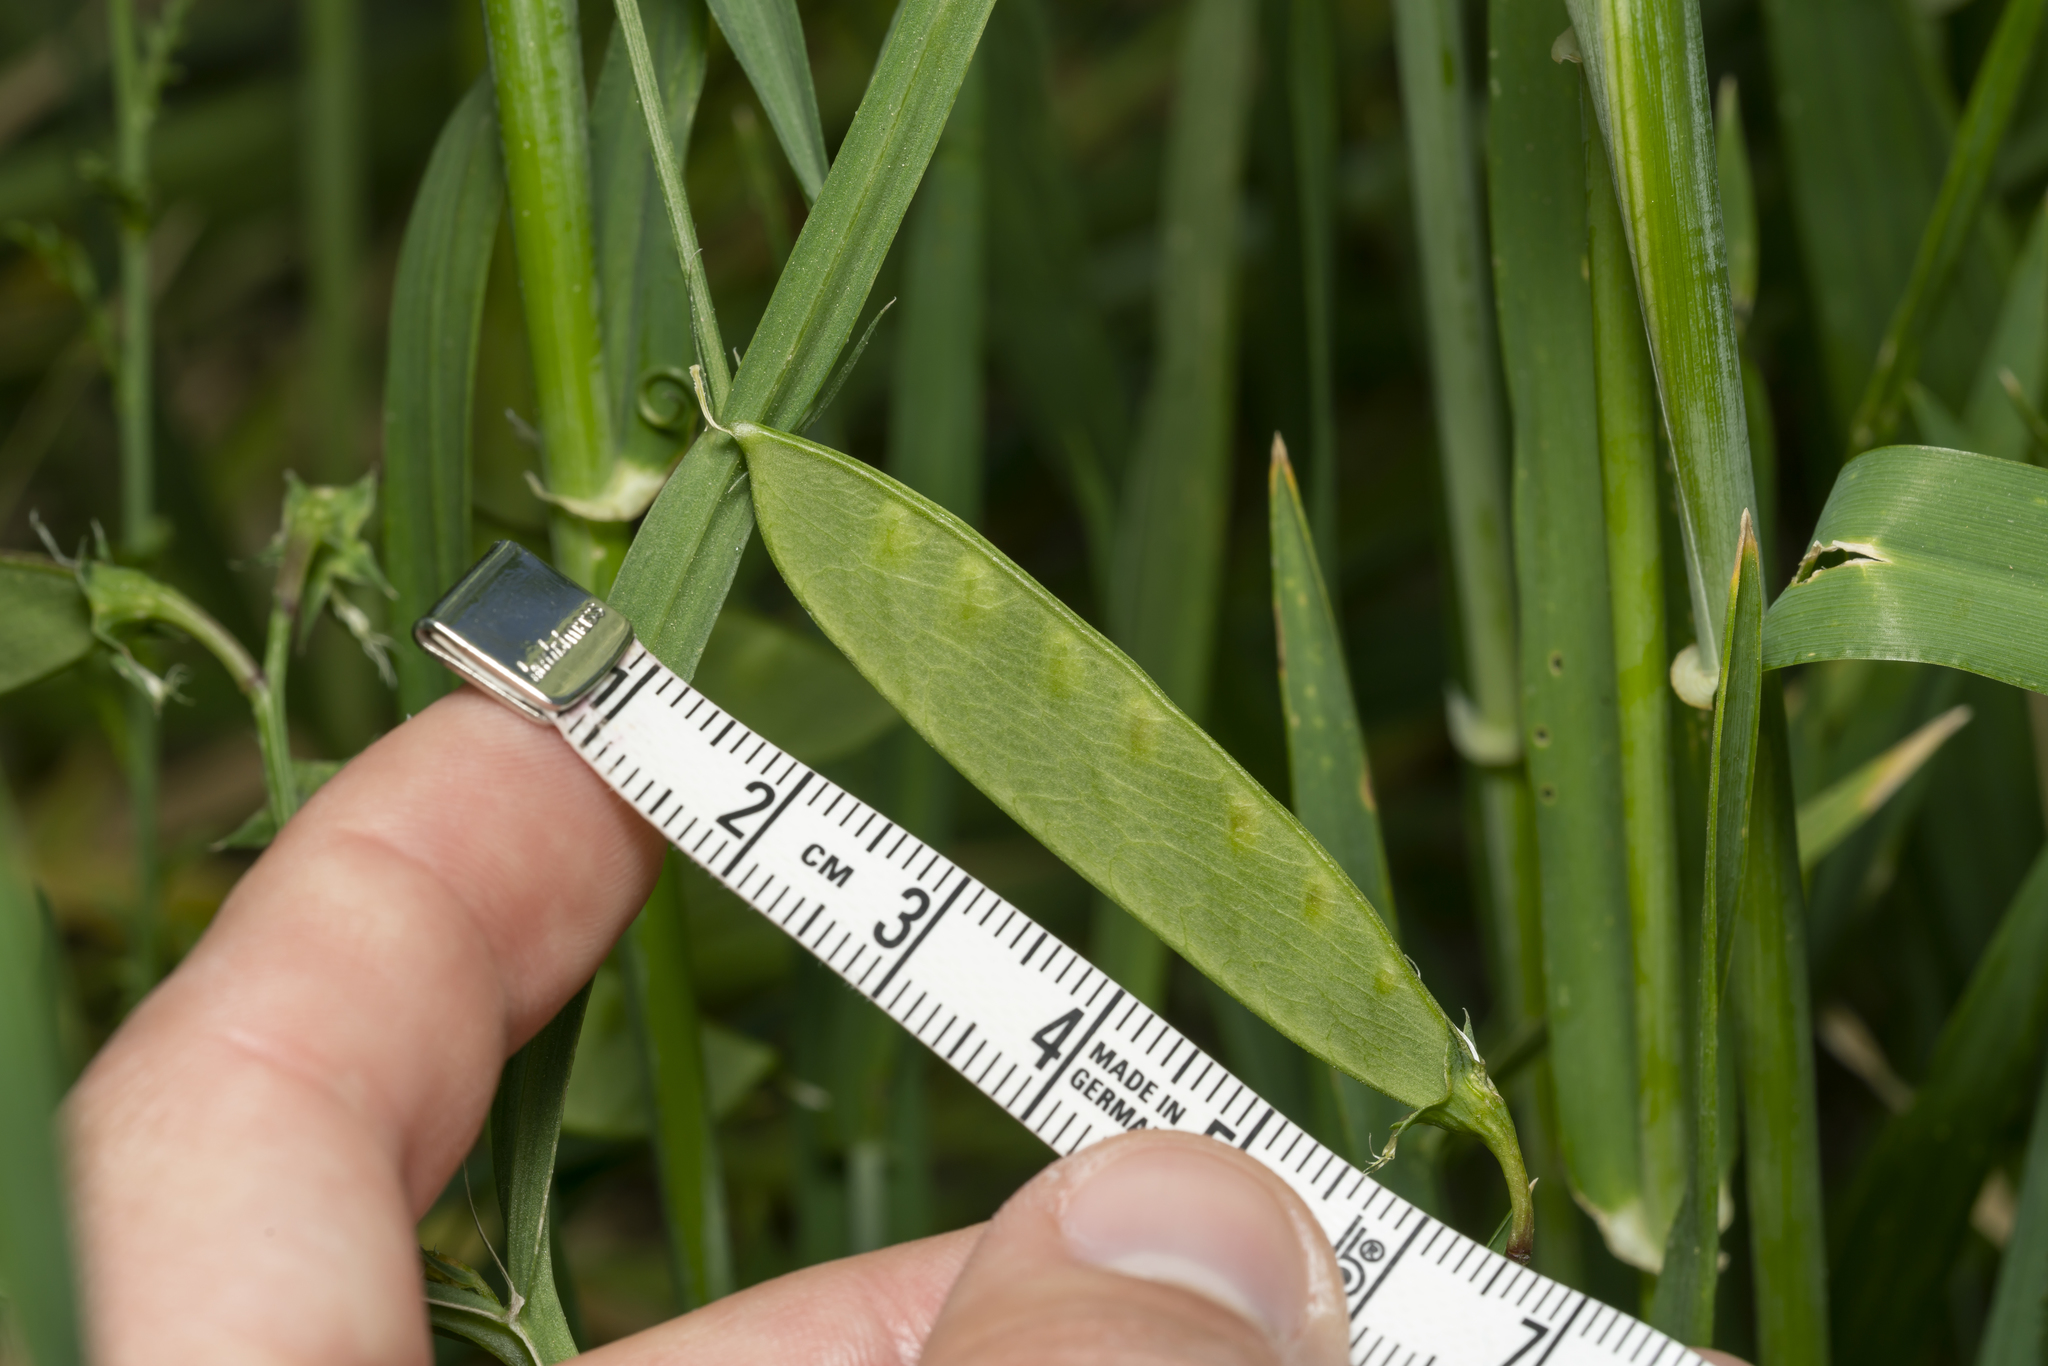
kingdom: Plantae
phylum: Tracheophyta
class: Magnoliopsida
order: Fabales
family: Fabaceae
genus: Lathyrus
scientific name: Lathyrus annuus
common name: Fodder pea
